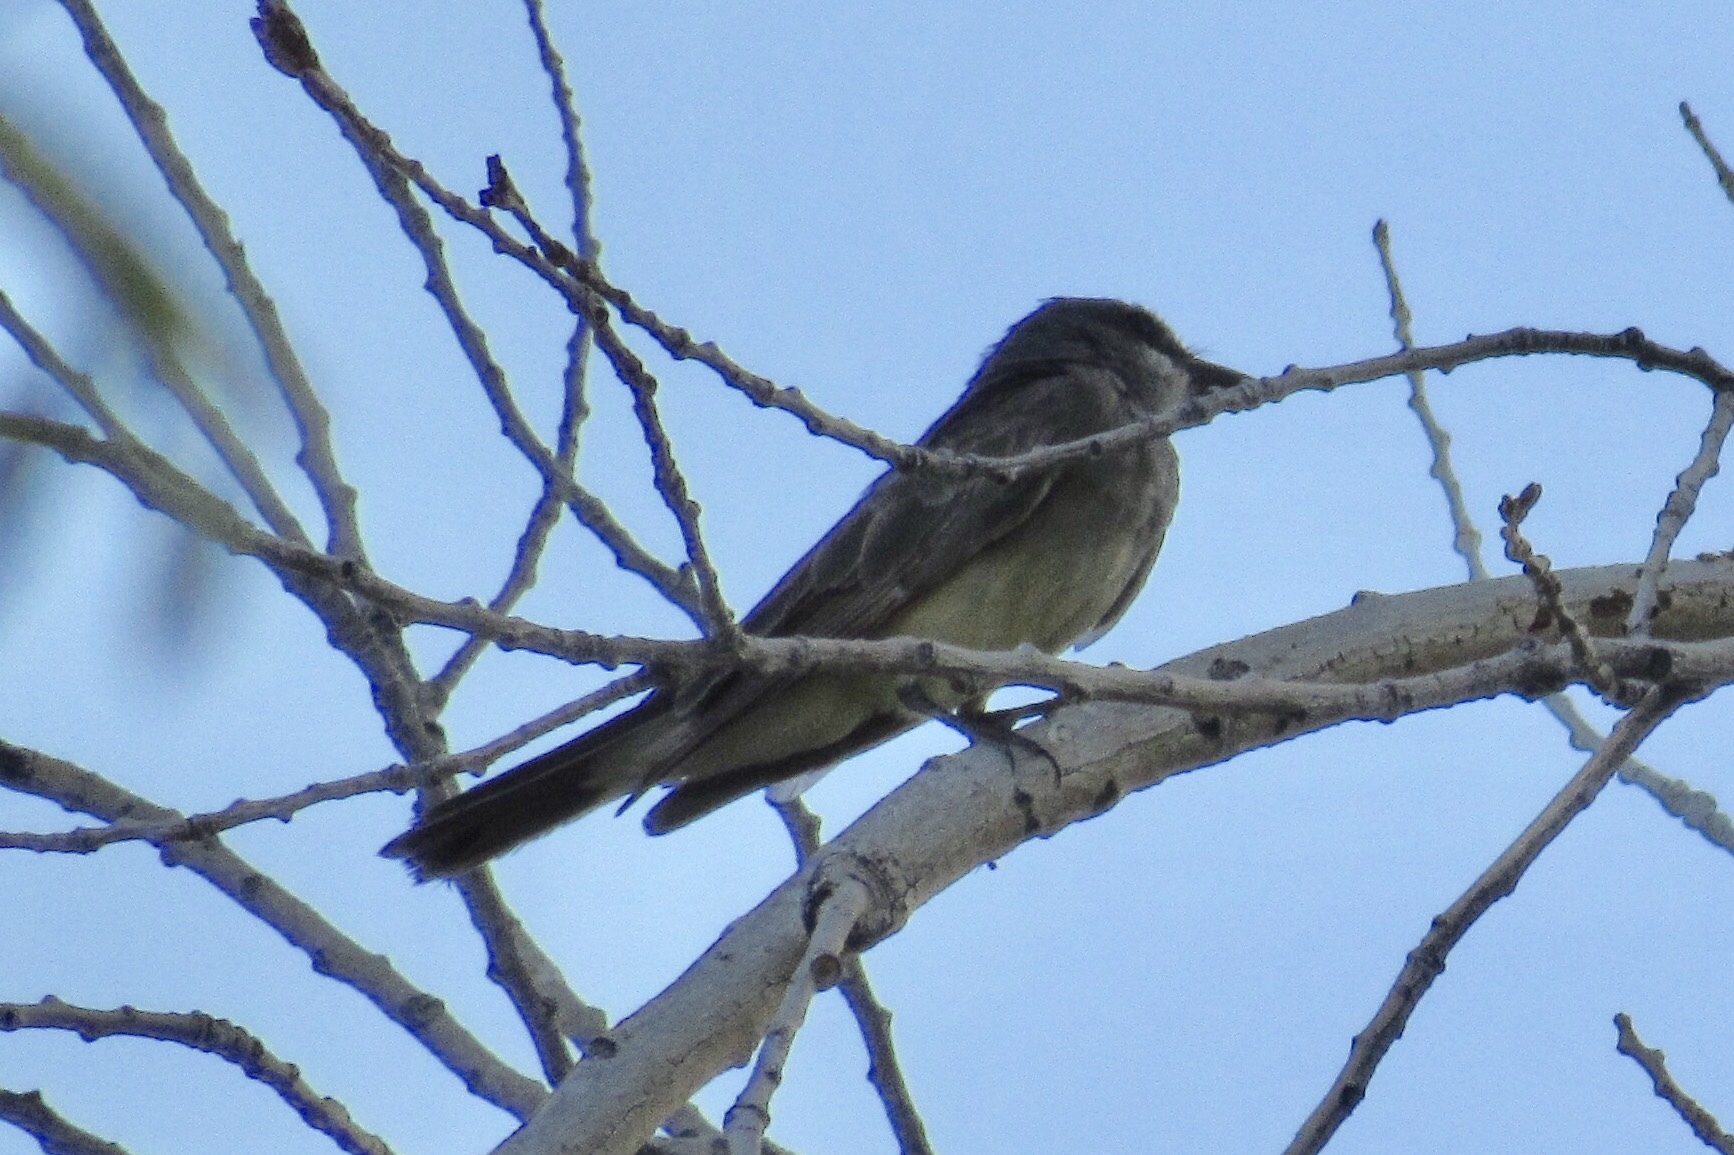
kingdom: Animalia
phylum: Chordata
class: Aves
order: Passeriformes
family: Tyrannidae
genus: Tyrannus
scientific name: Tyrannus vociferans
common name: Cassin's kingbird
